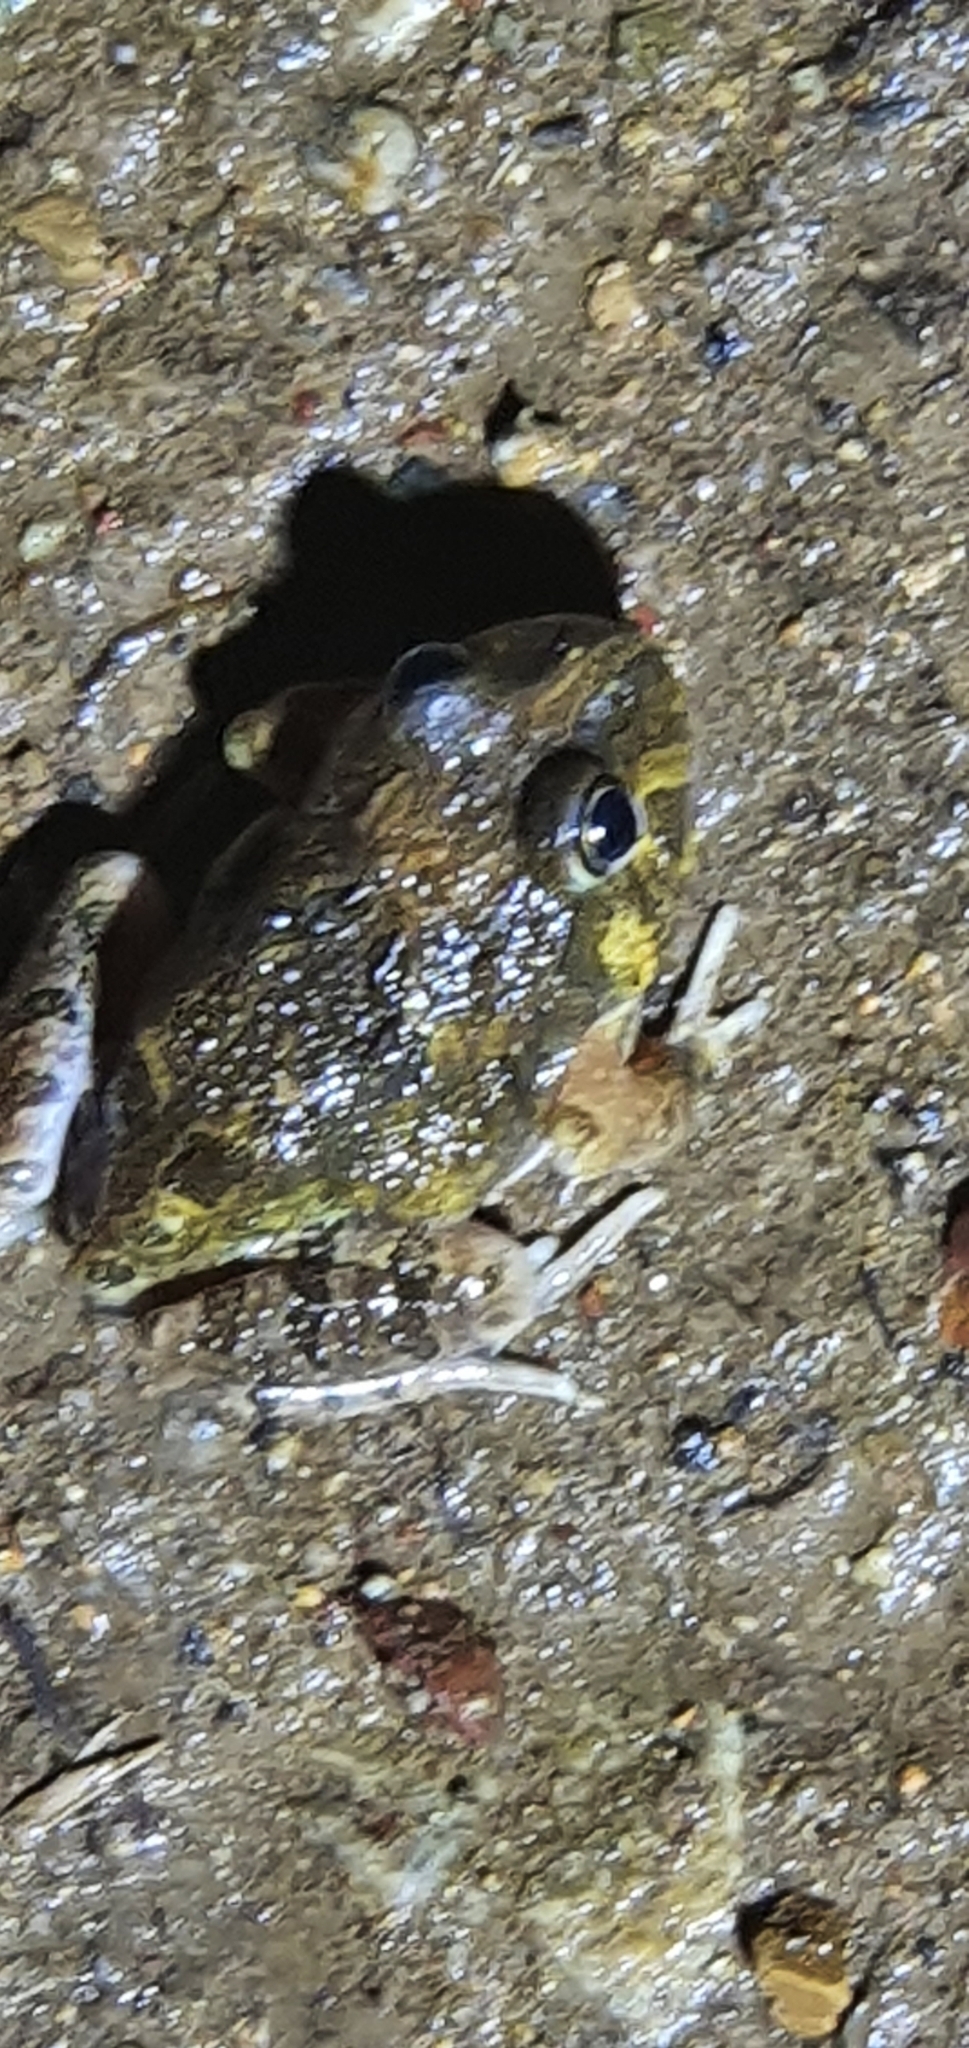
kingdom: Animalia
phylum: Chordata
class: Amphibia
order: Anura
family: Limnodynastidae
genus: Platyplectrum
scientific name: Platyplectrum ornatum
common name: Ornate burrowing frog
